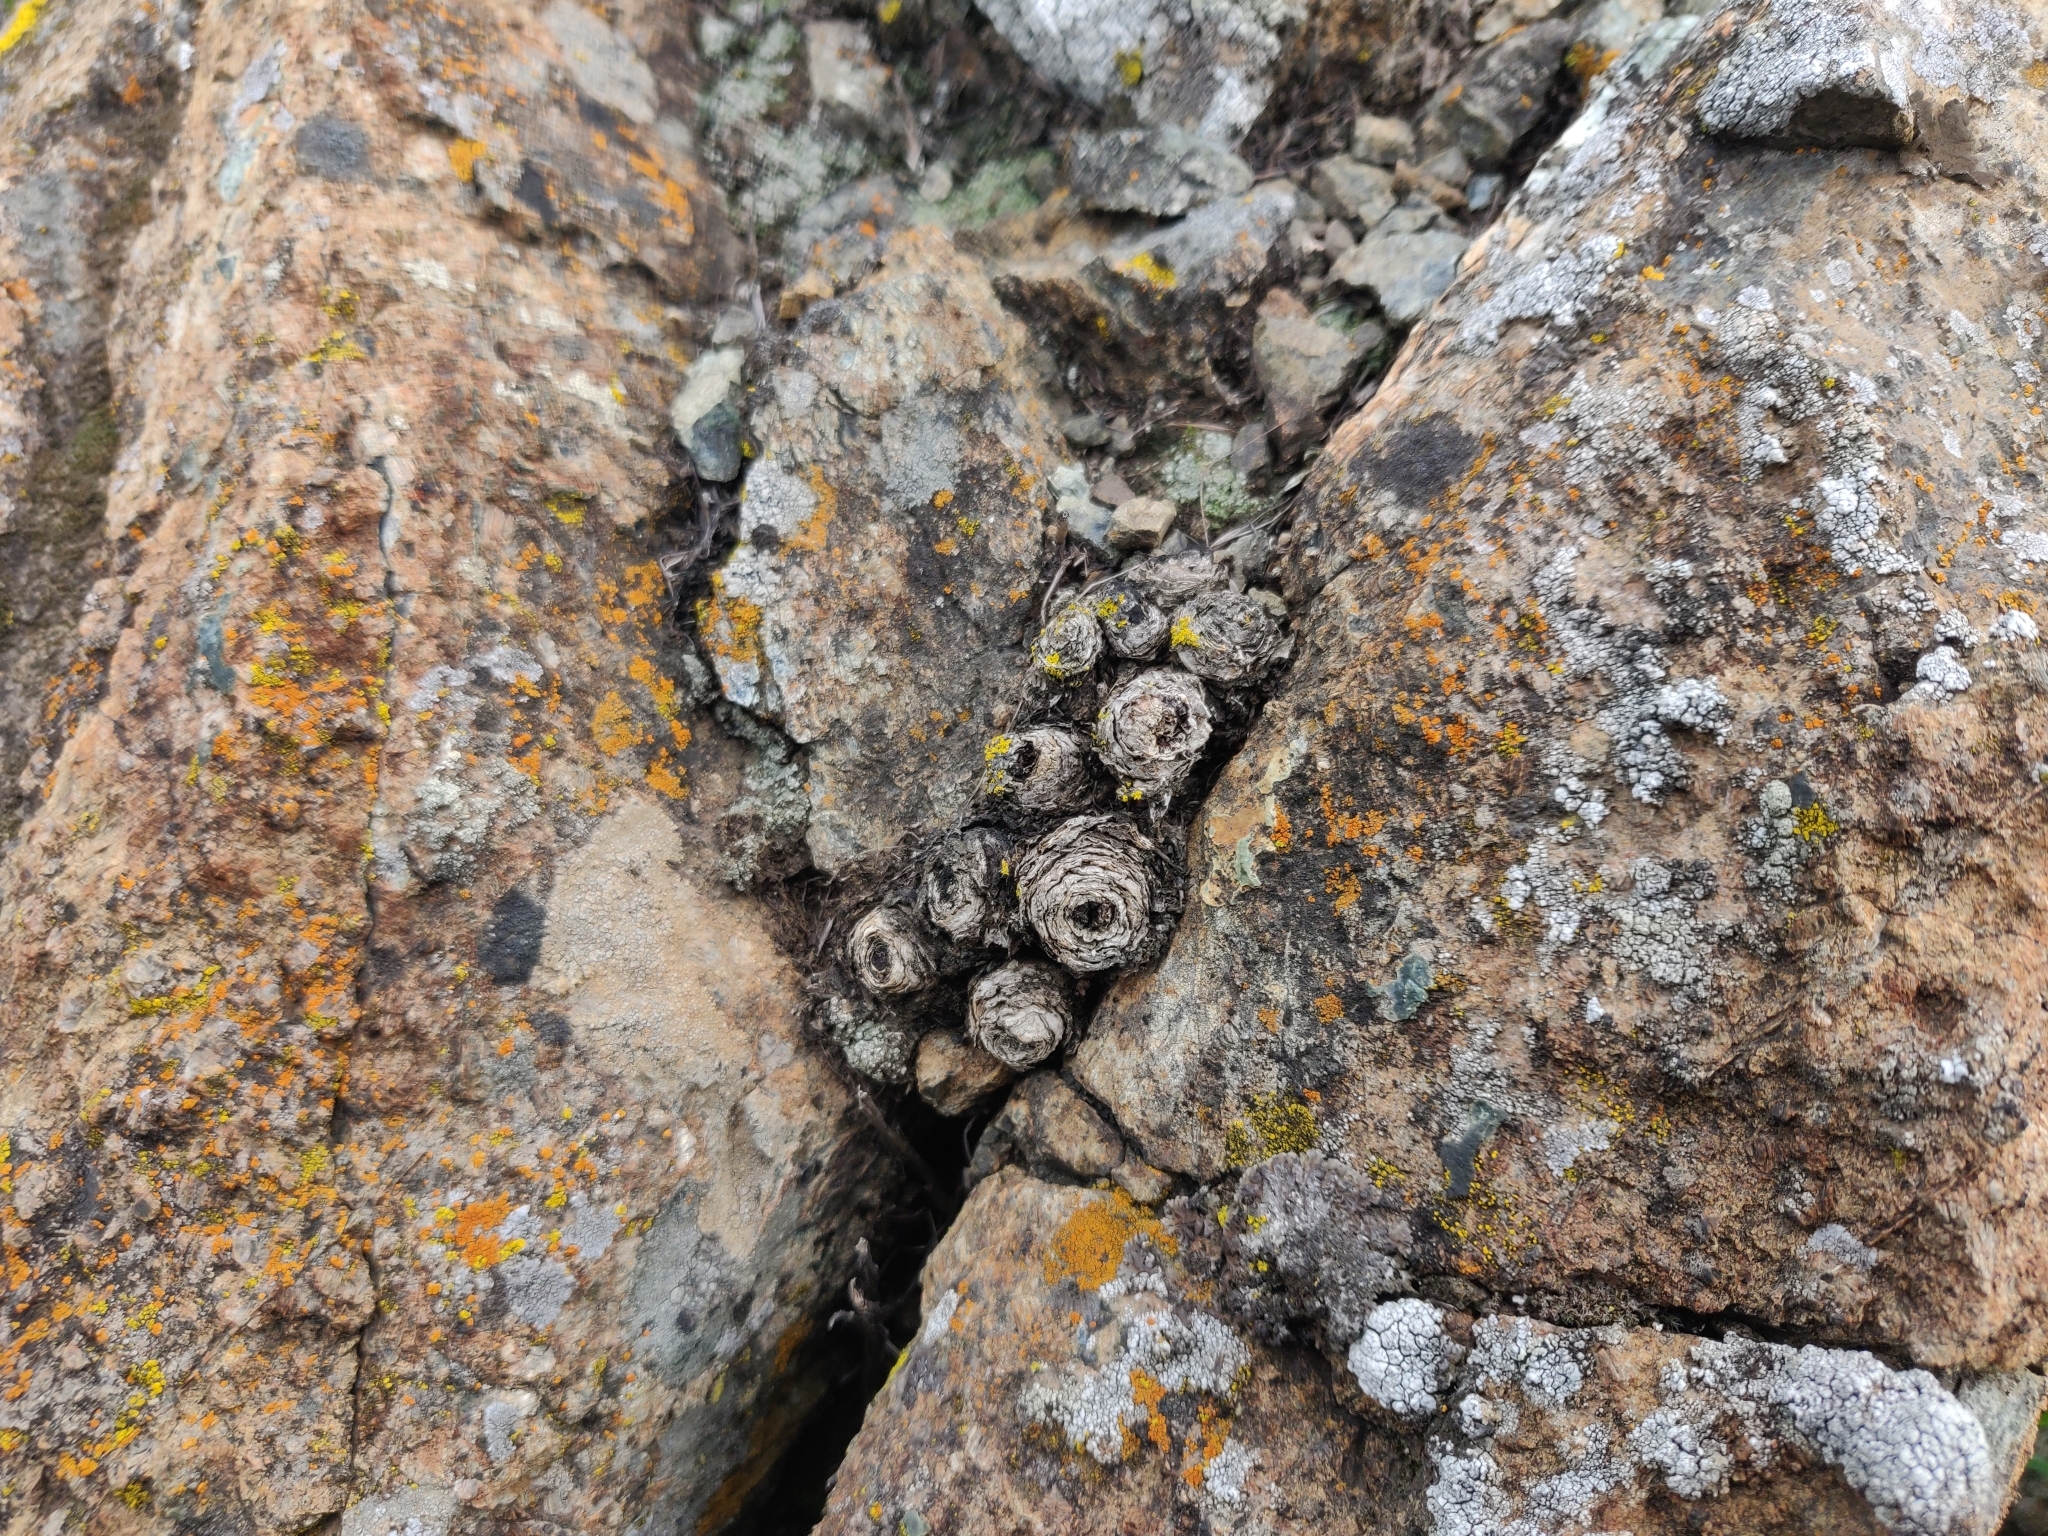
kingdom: Plantae
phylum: Tracheophyta
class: Magnoliopsida
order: Saxifragales
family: Crassulaceae
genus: Dudleya
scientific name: Dudleya abramsii
